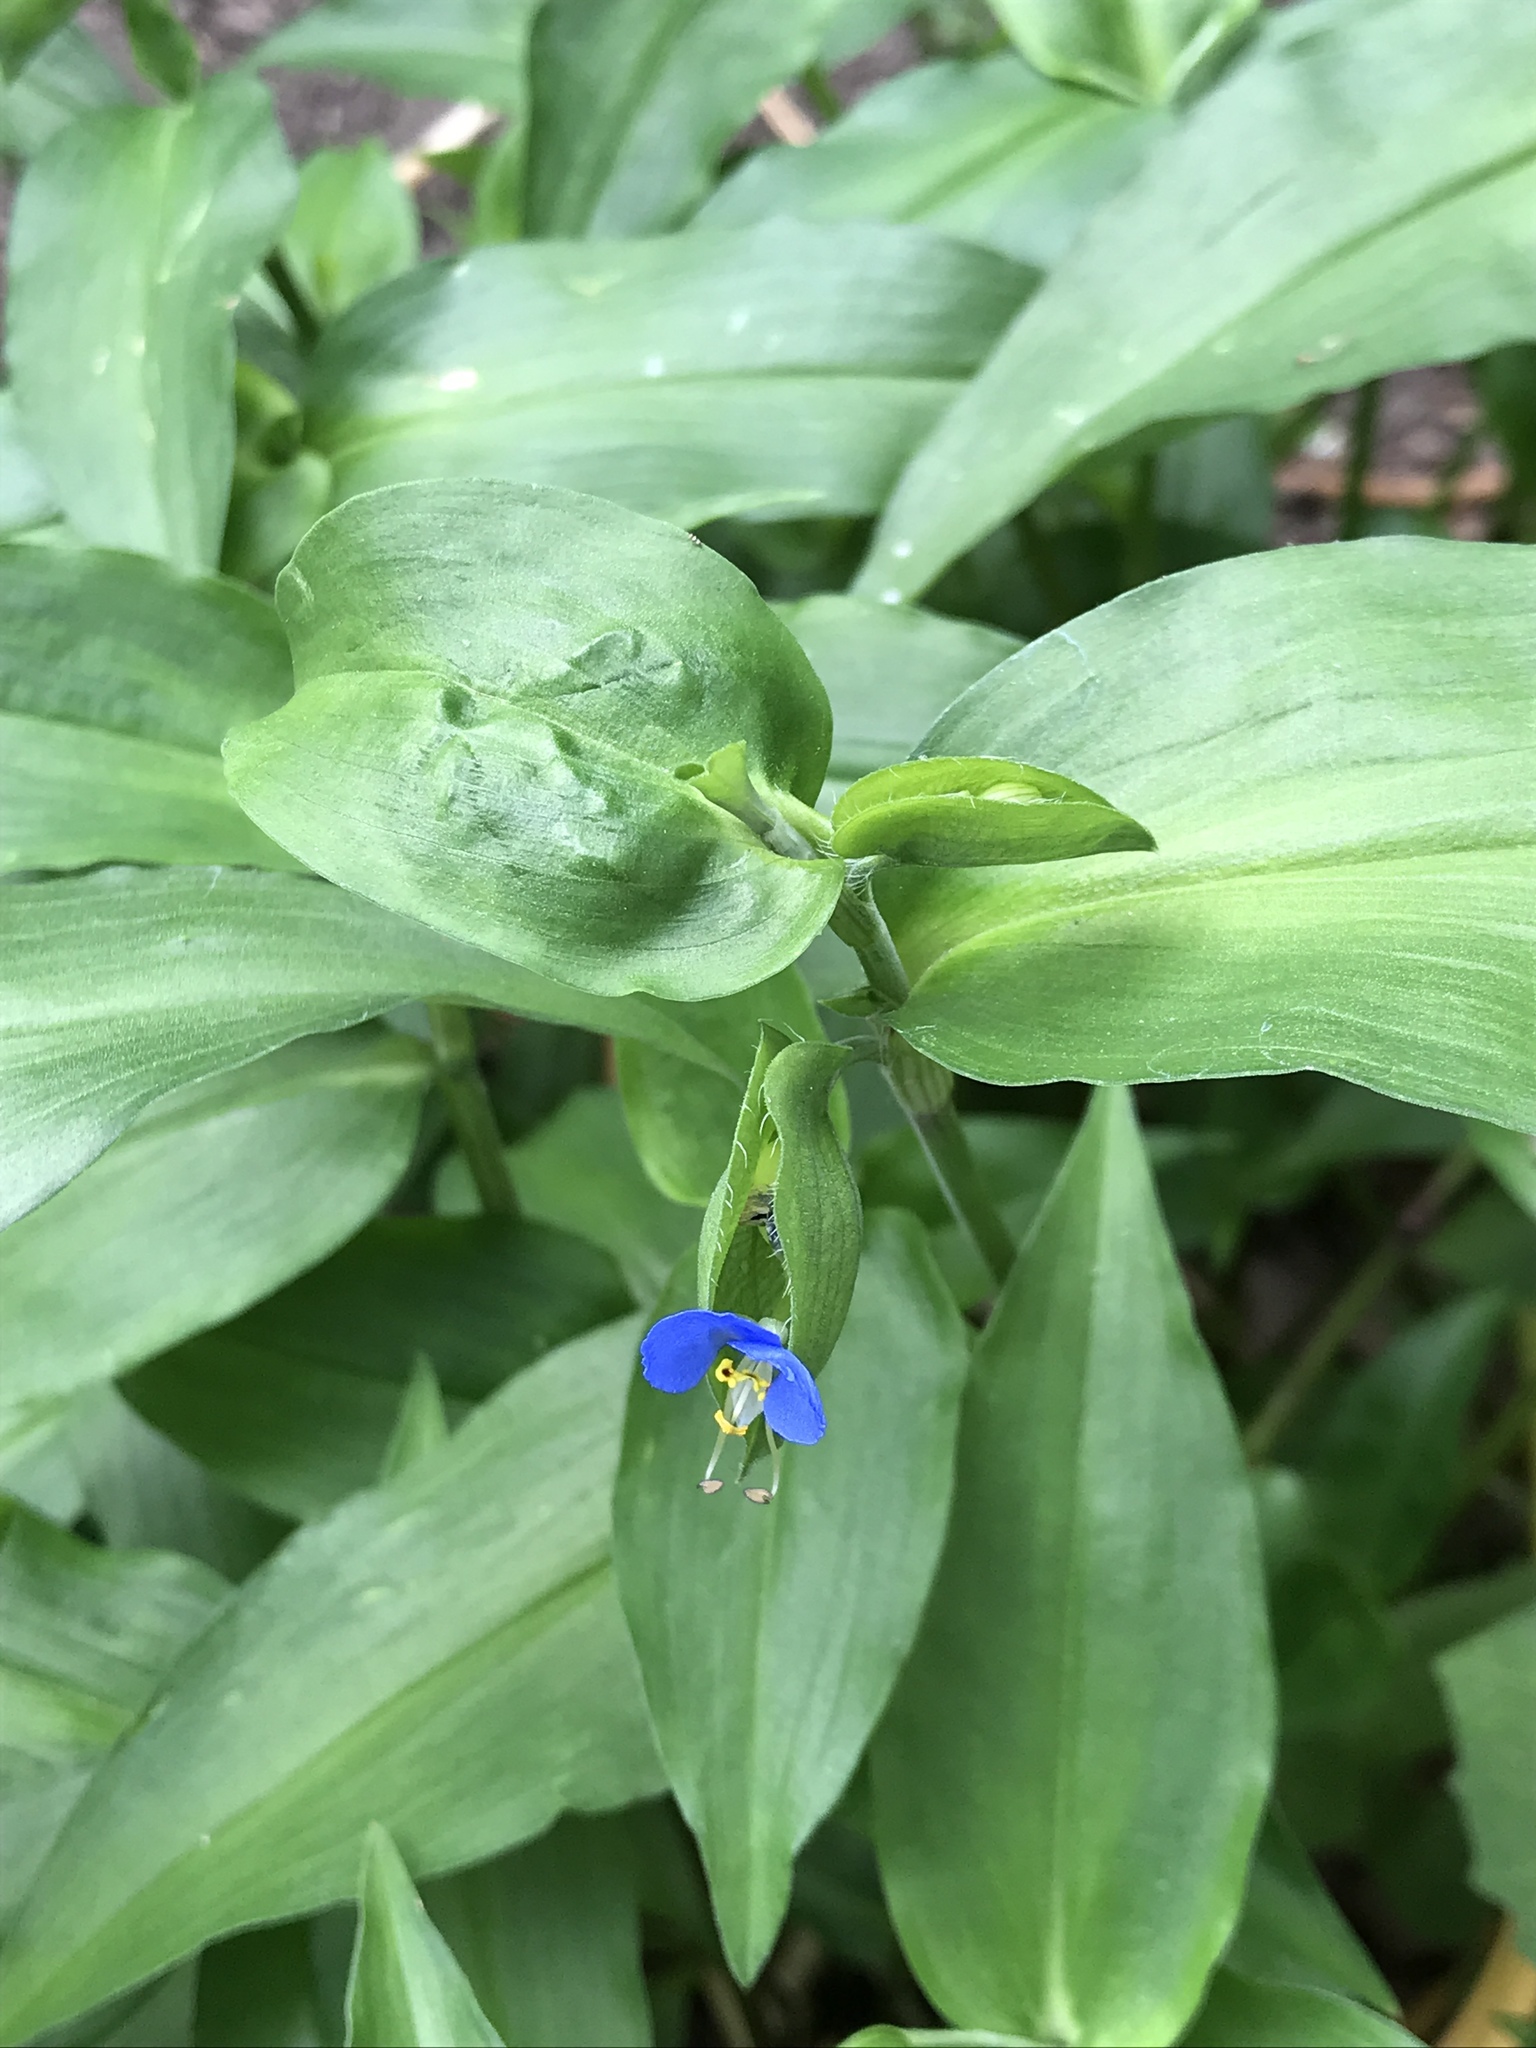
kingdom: Plantae
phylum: Tracheophyta
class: Liliopsida
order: Commelinales
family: Commelinaceae
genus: Commelina
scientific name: Commelina communis
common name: Asiatic dayflower
